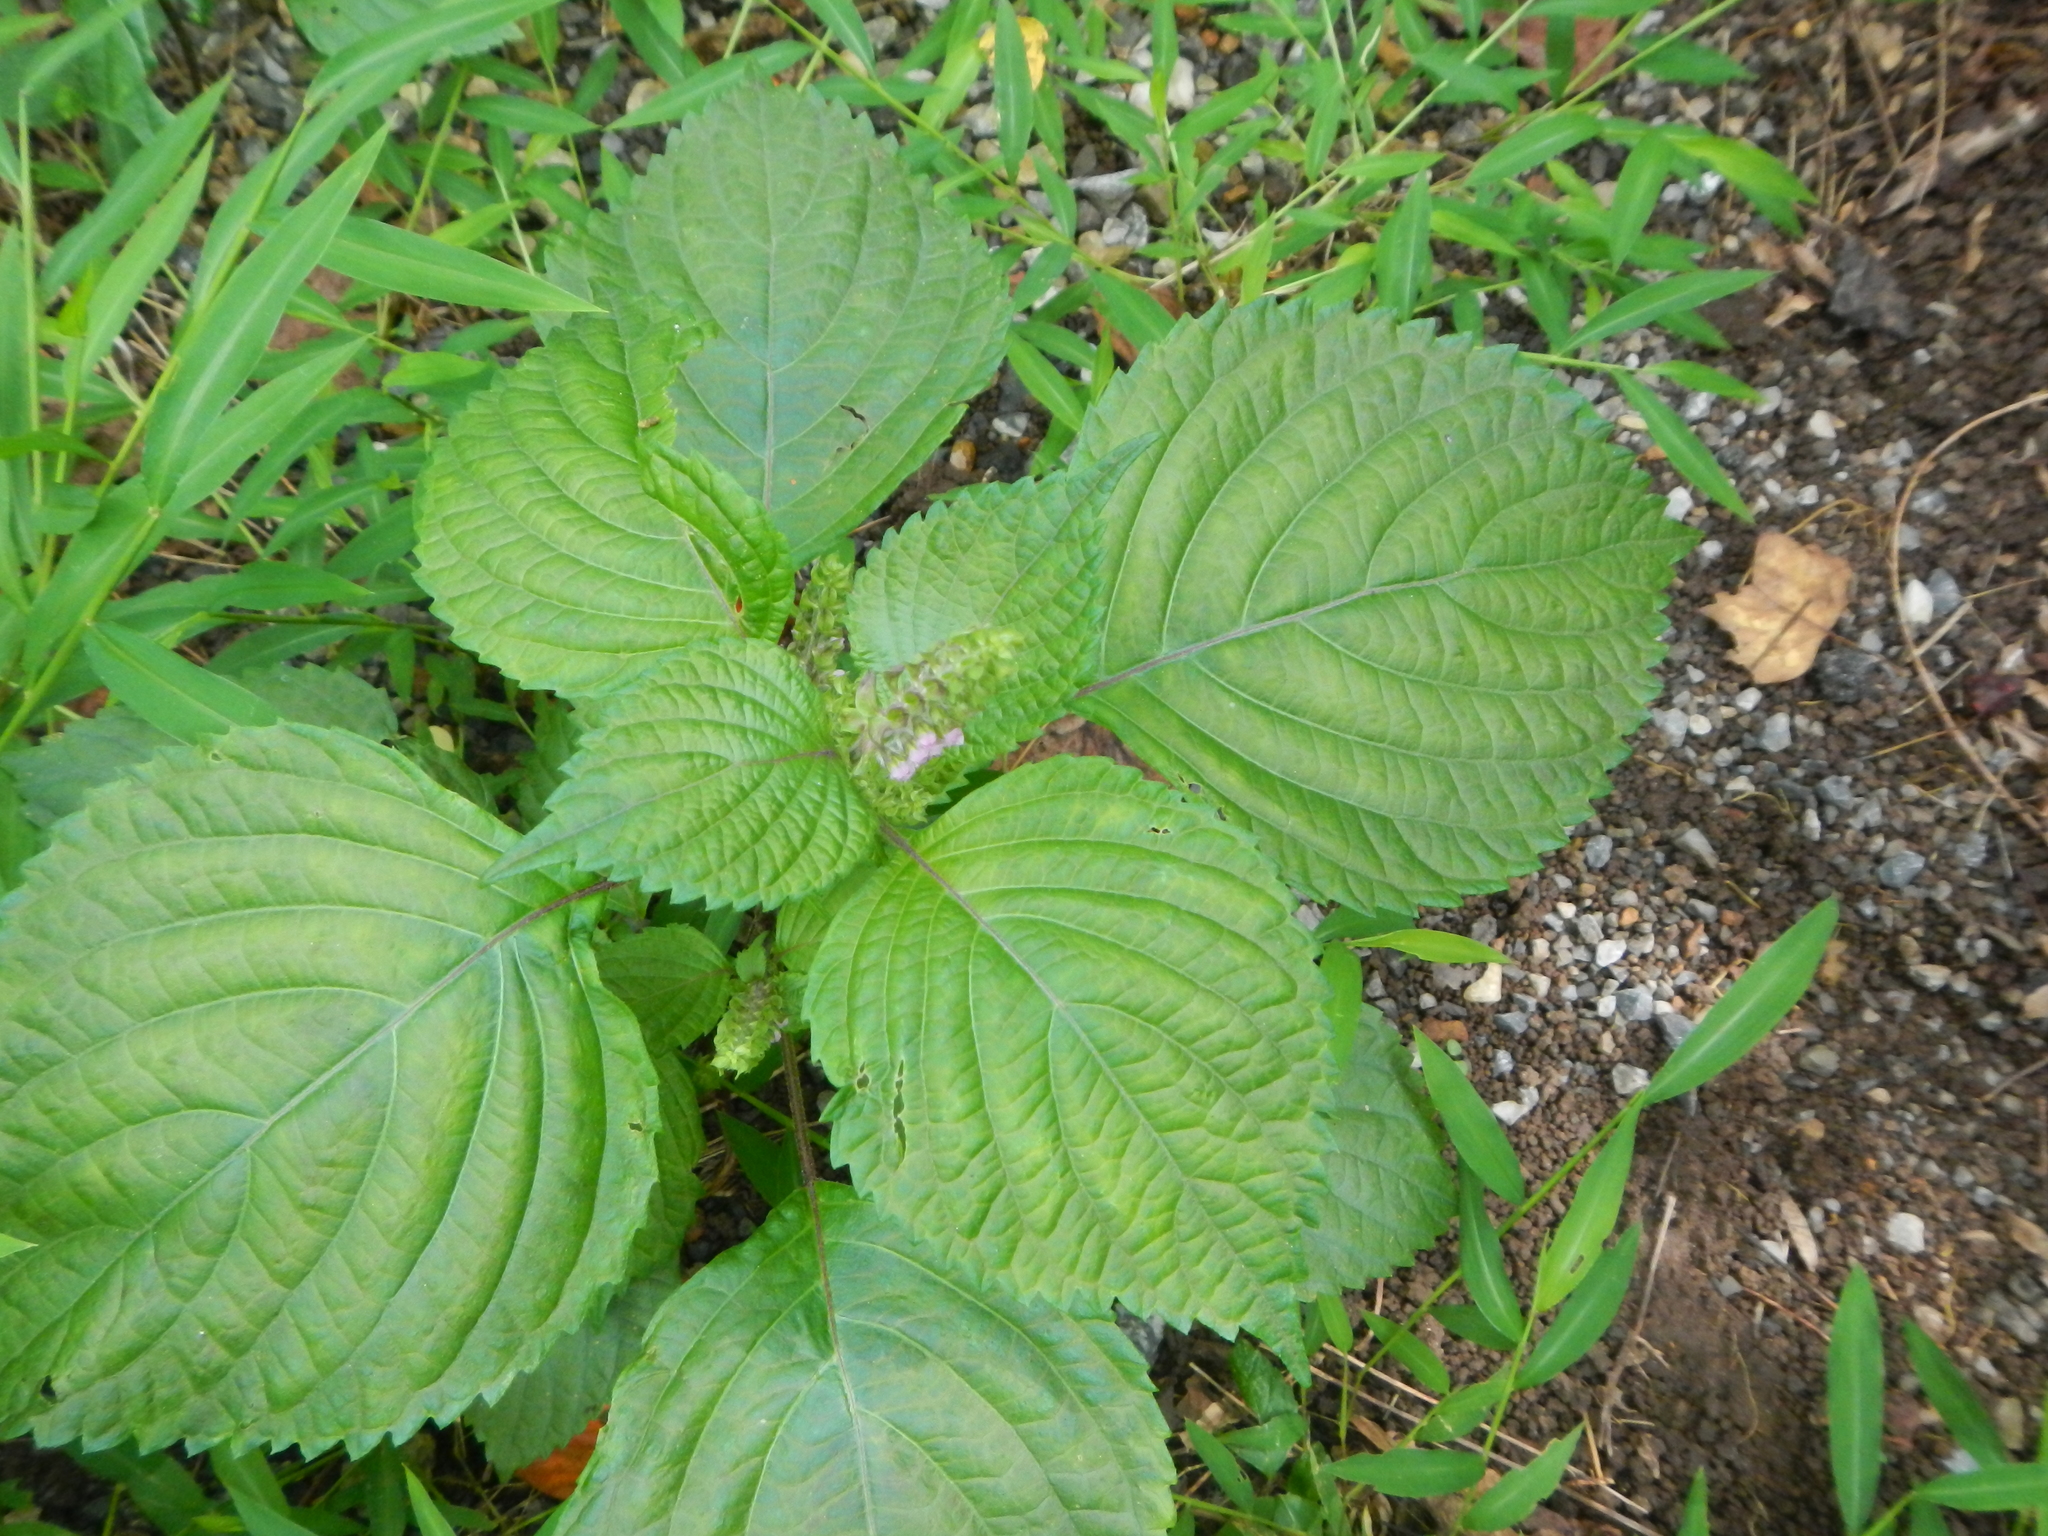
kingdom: Plantae
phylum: Tracheophyta
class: Magnoliopsida
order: Lamiales
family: Lamiaceae
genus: Perilla
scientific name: Perilla frutescens
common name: Perilla
